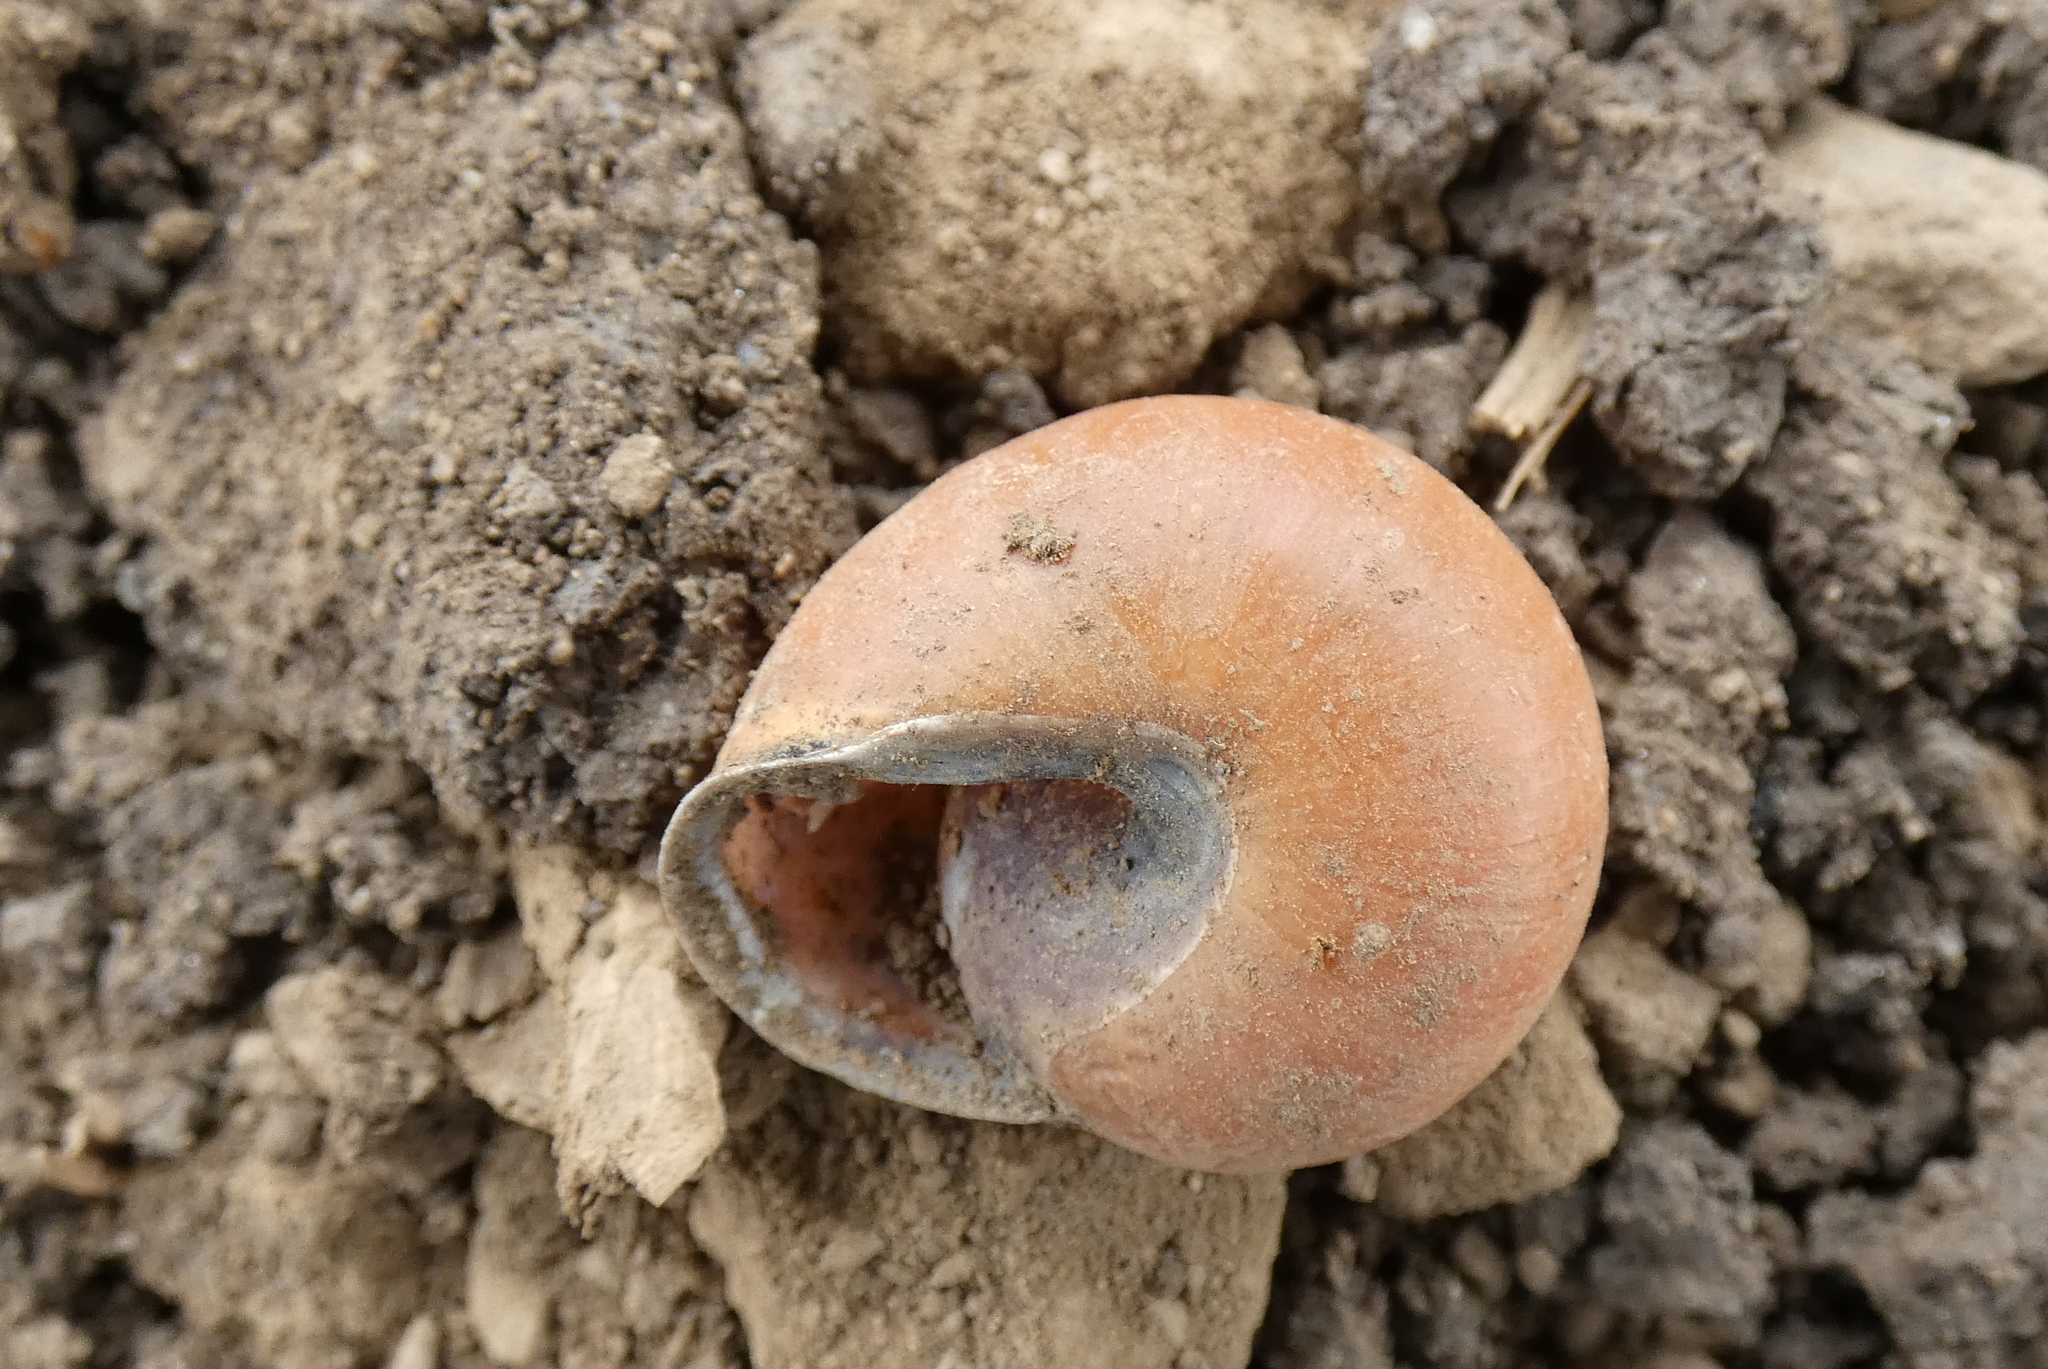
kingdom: Animalia
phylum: Mollusca
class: Gastropoda
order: Stylommatophora
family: Helicidae
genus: Cepaea
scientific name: Cepaea nemoralis
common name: Grovesnail
